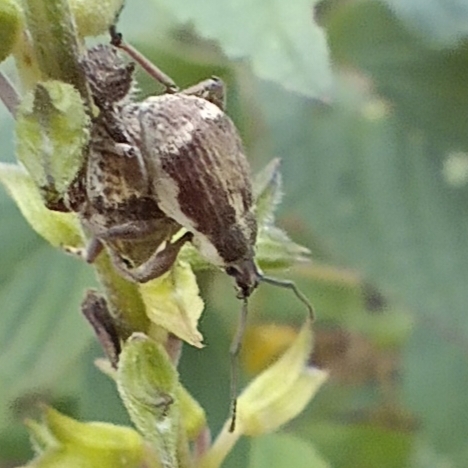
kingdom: Animalia
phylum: Arthropoda
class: Insecta
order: Coleoptera
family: Curculionidae
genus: Sciobius
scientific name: Sciobius pullus
